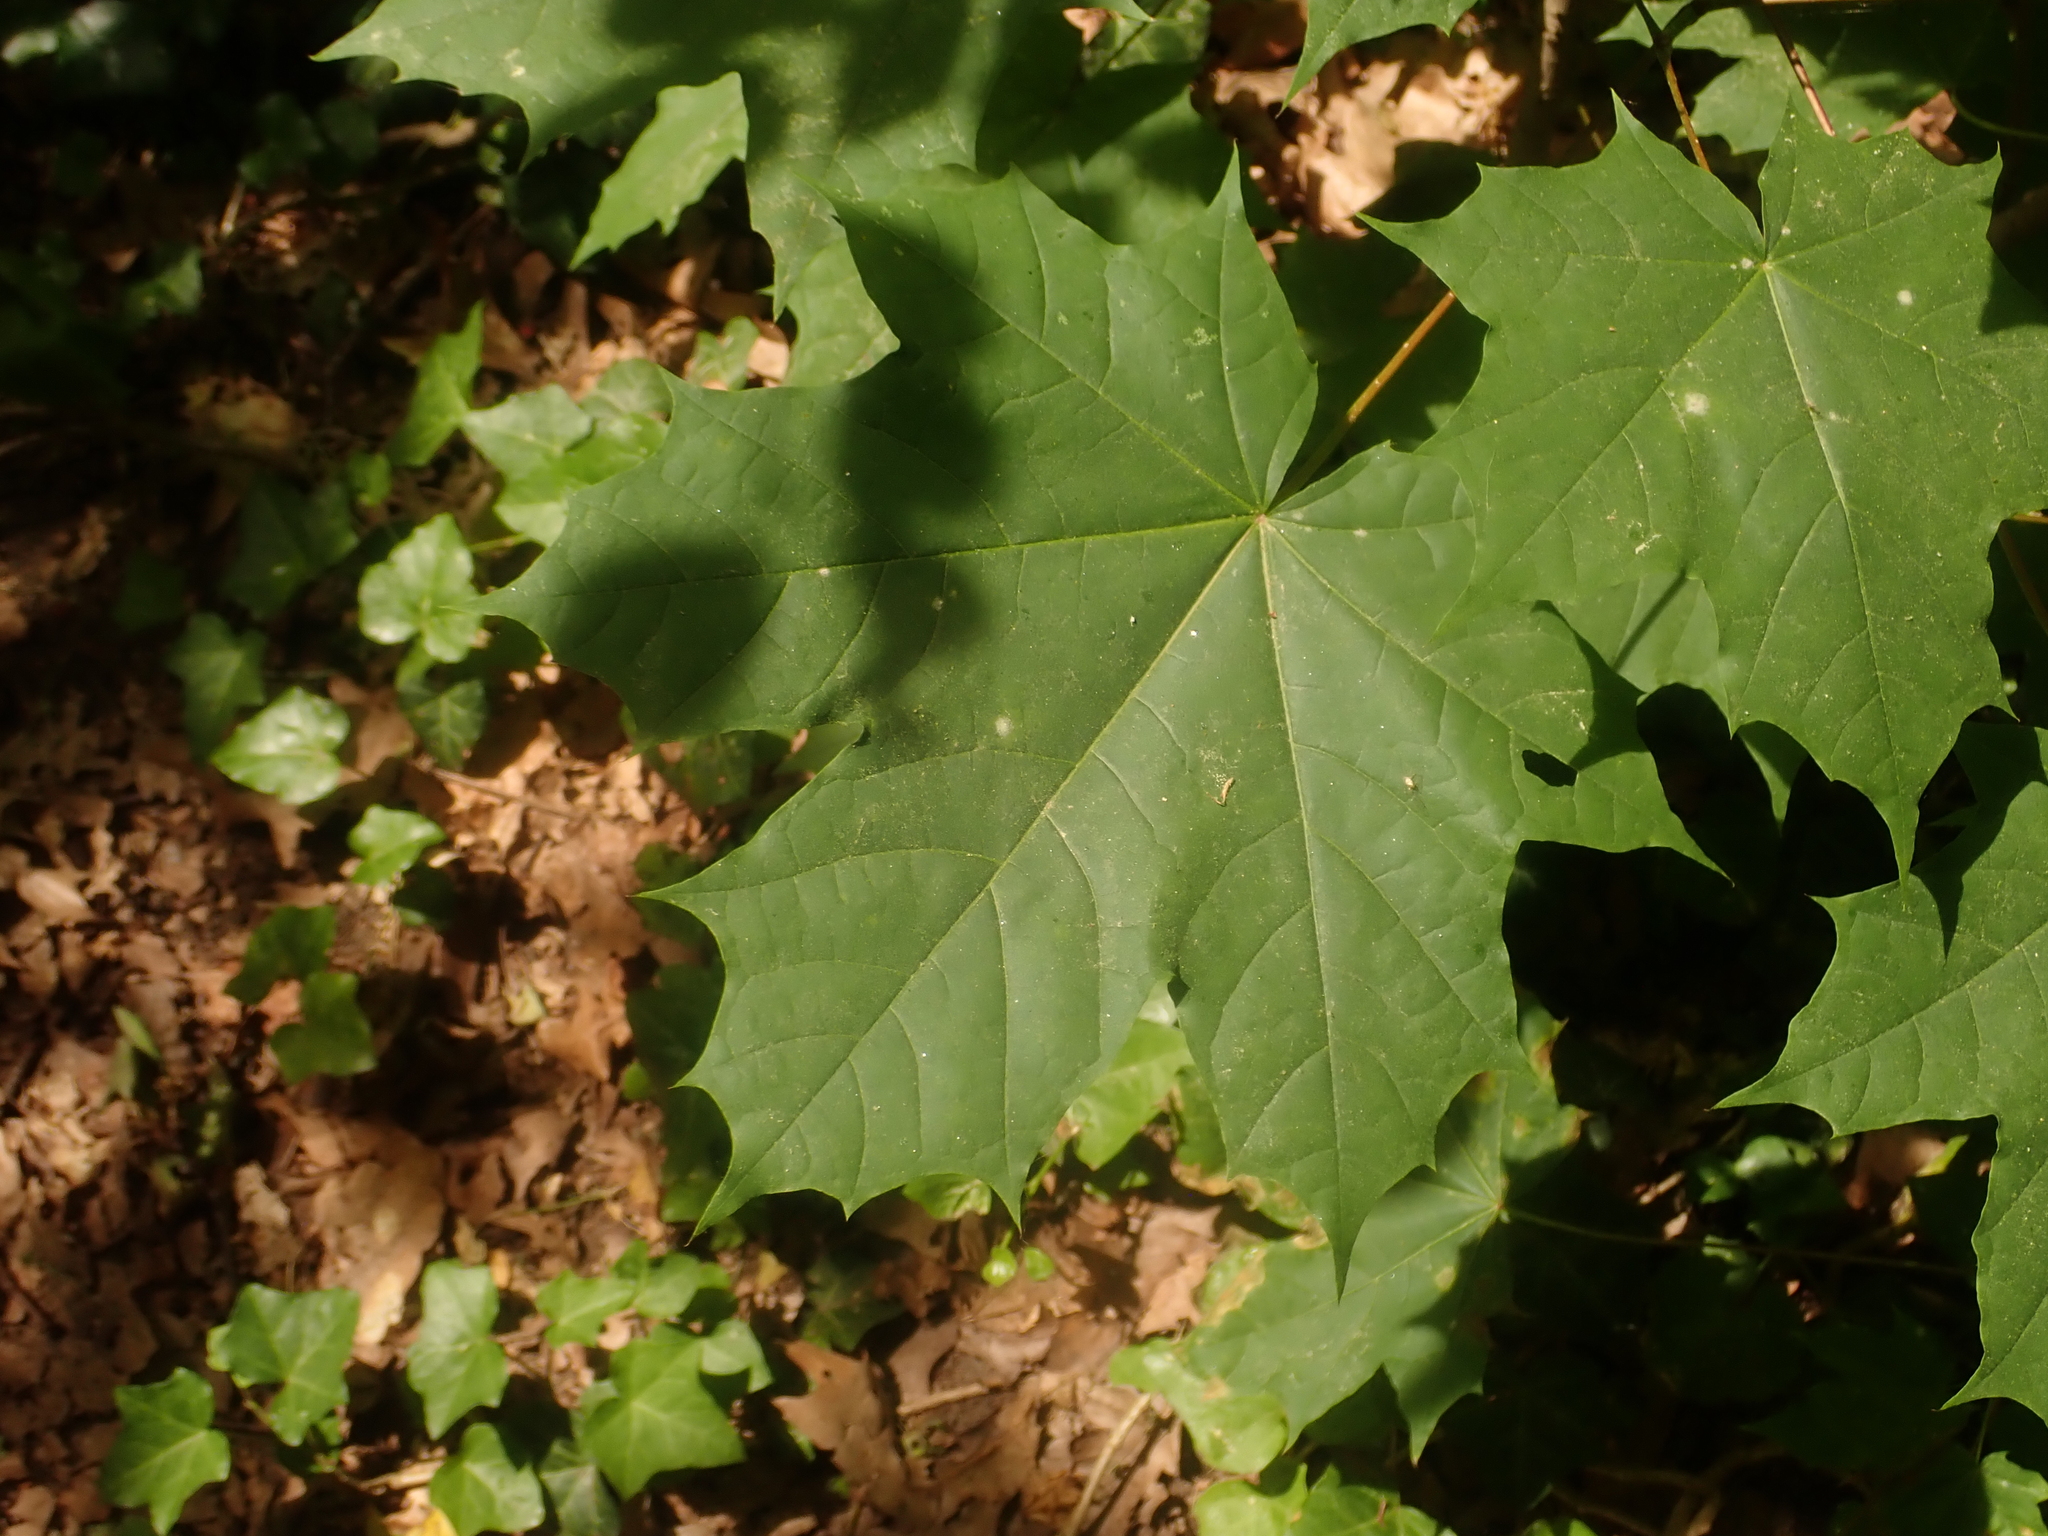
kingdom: Plantae
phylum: Tracheophyta
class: Magnoliopsida
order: Sapindales
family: Sapindaceae
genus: Acer
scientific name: Acer platanoides
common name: Norway maple
